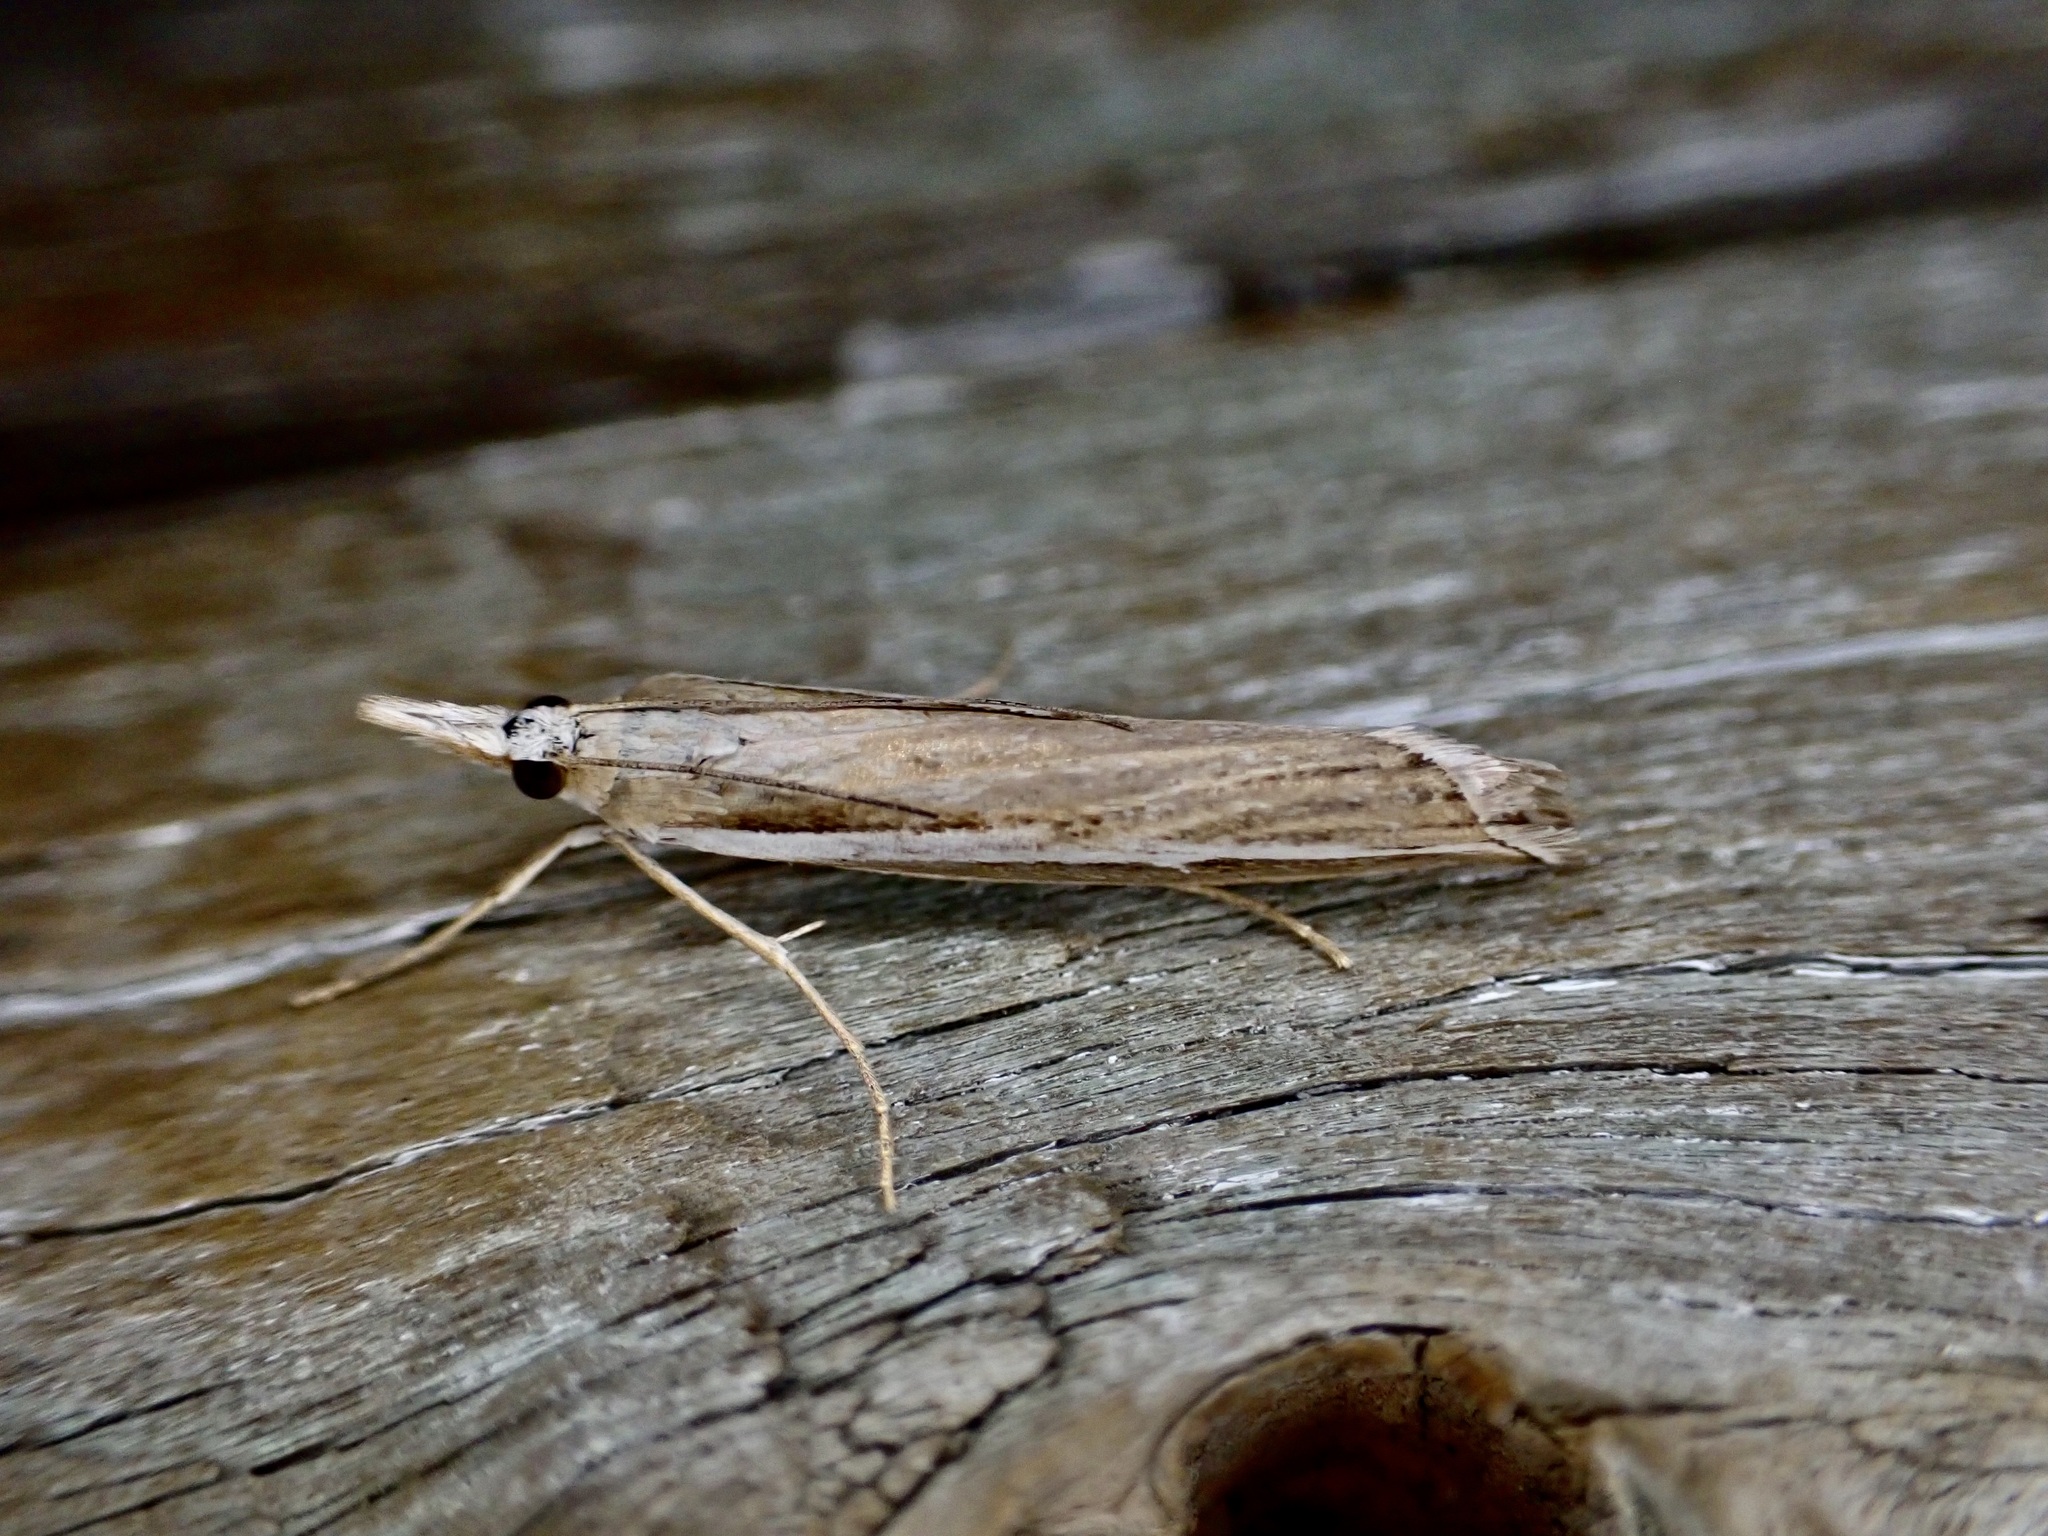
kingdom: Animalia
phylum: Arthropoda
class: Insecta
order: Lepidoptera
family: Crambidae
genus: Orocrambus
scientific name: Orocrambus vittellus
